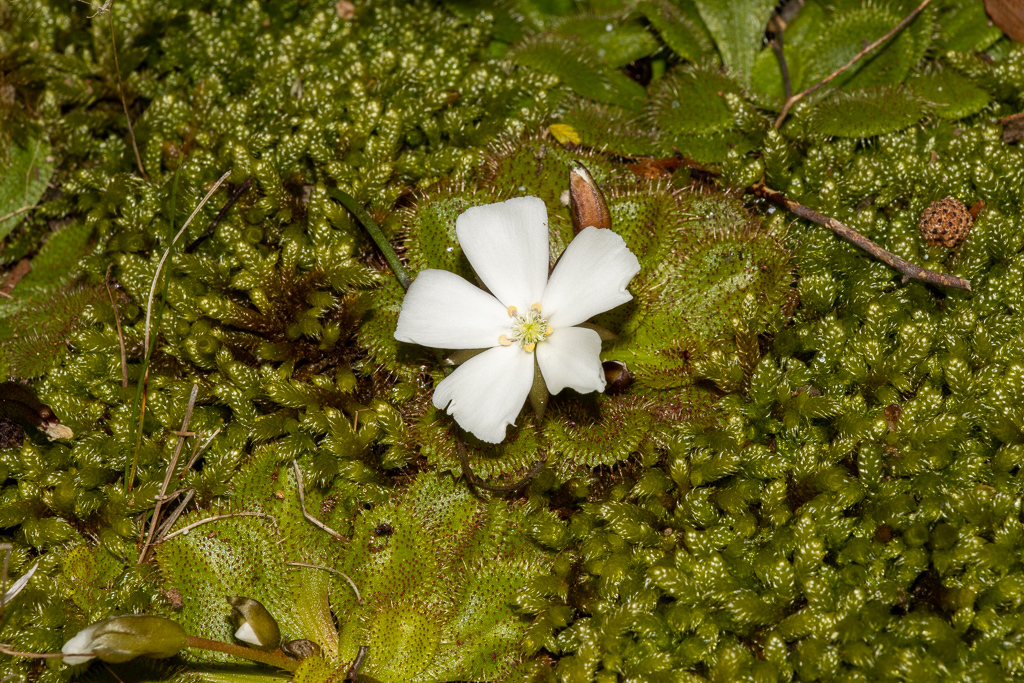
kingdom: Plantae
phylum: Tracheophyta
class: Magnoliopsida
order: Caryophyllales
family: Droseraceae
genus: Drosera
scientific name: Drosera whittakeri
